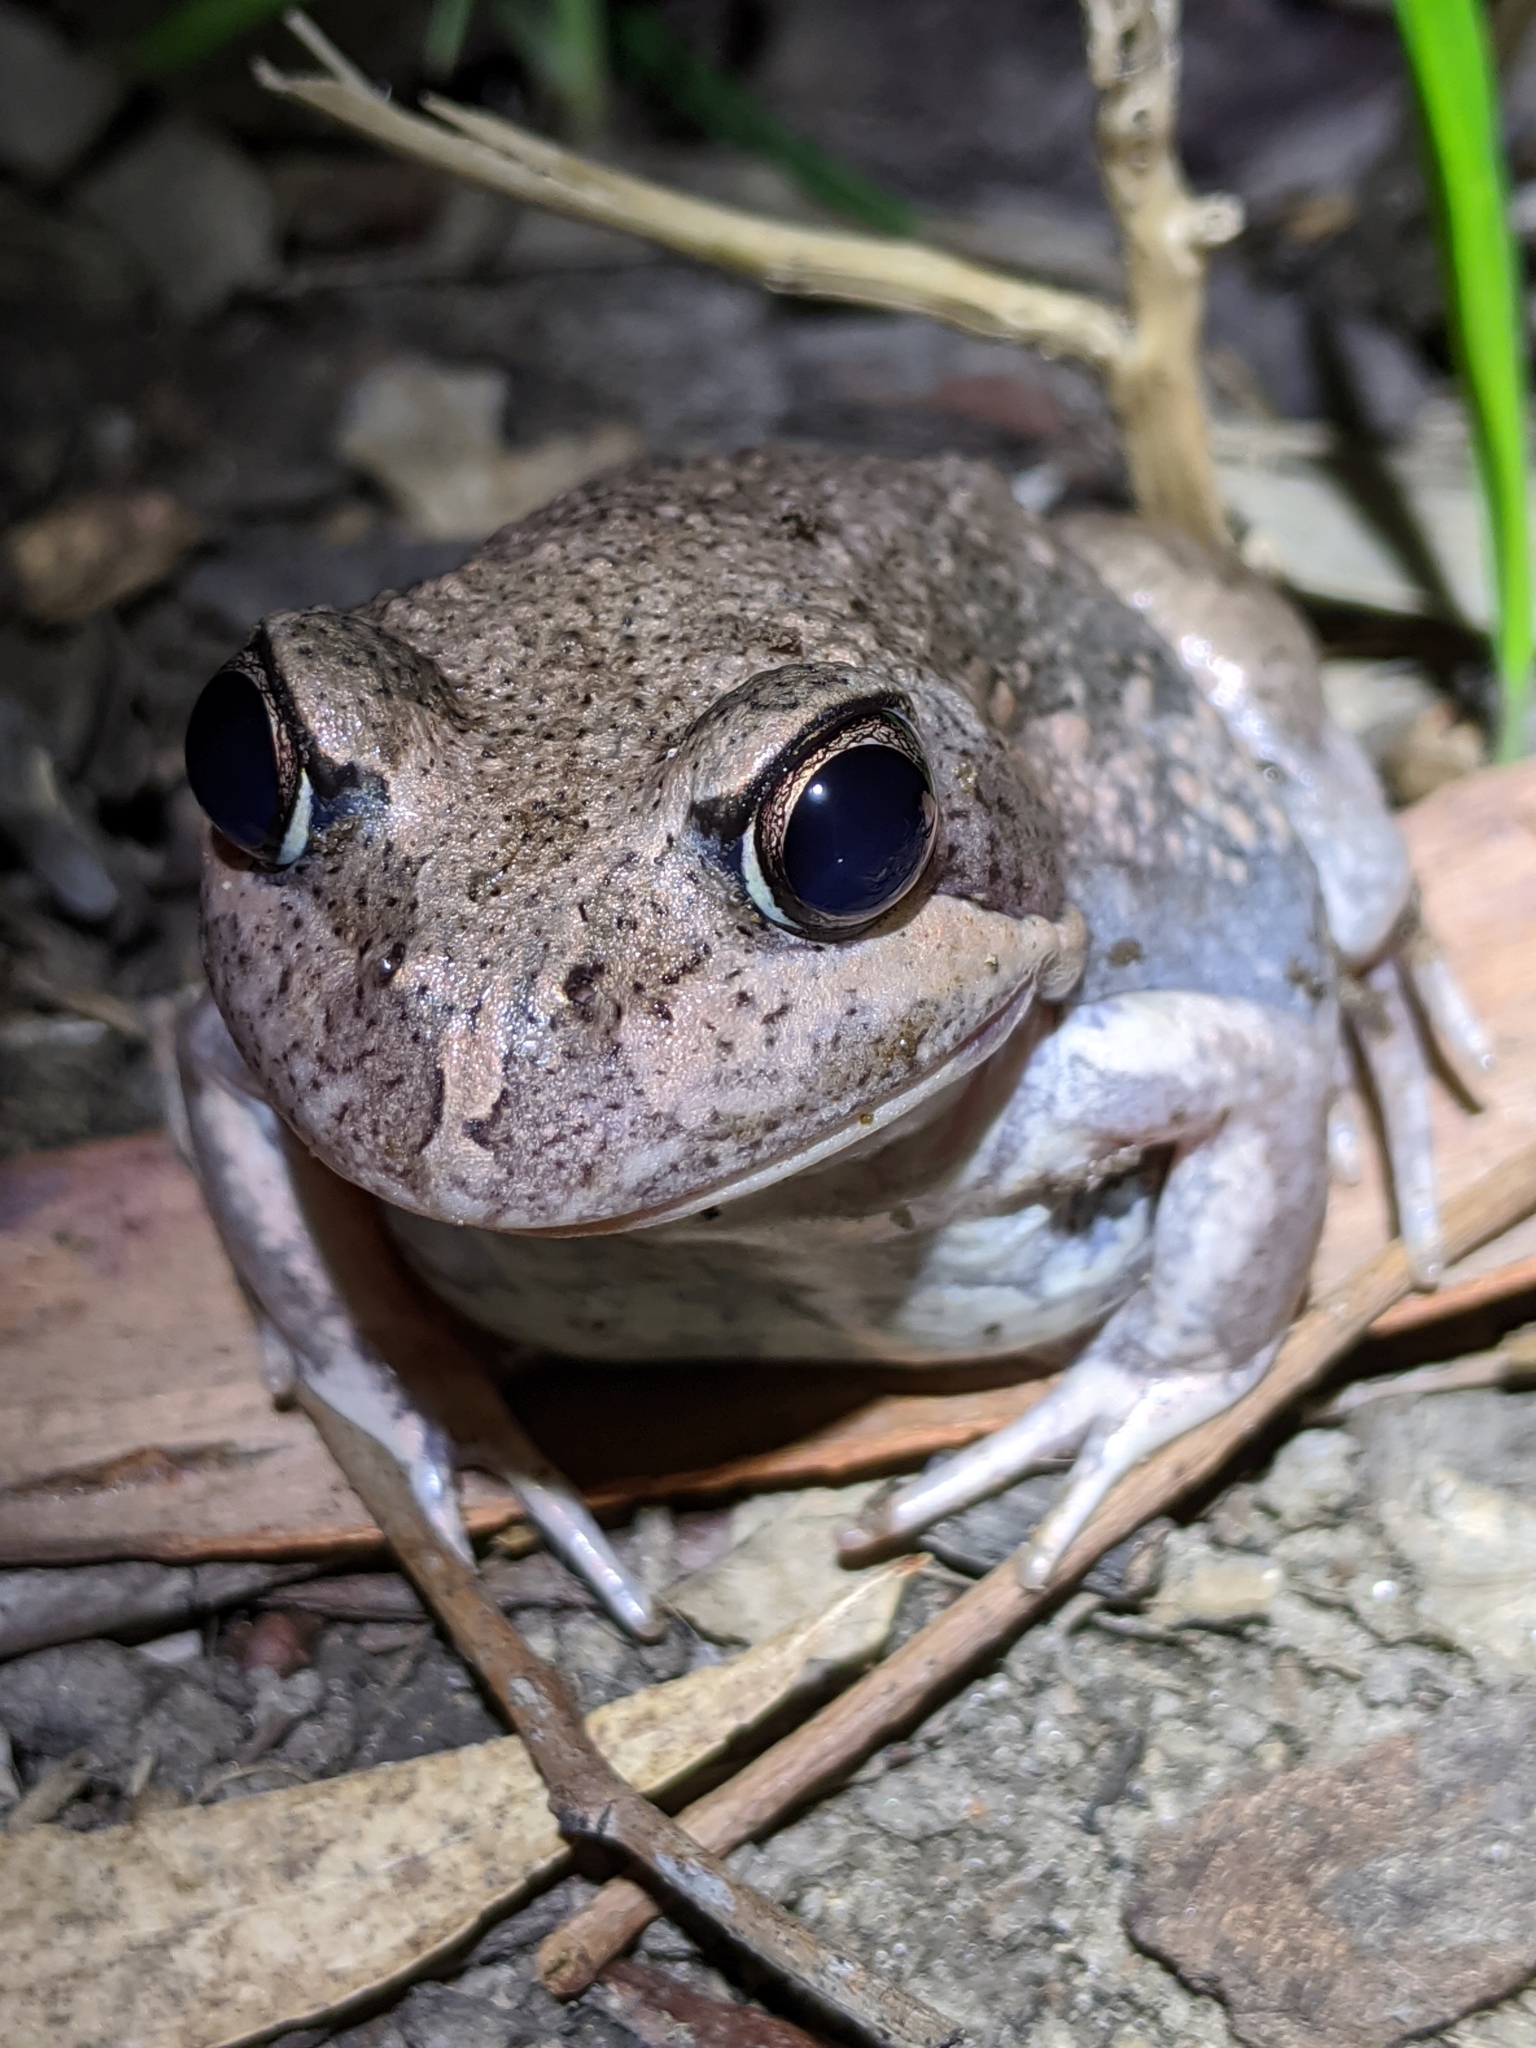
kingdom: Animalia
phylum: Chordata
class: Amphibia
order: Anura
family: Limnodynastidae
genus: Limnodynastes
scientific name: Limnodynastes dumerilii
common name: Banjo frog
